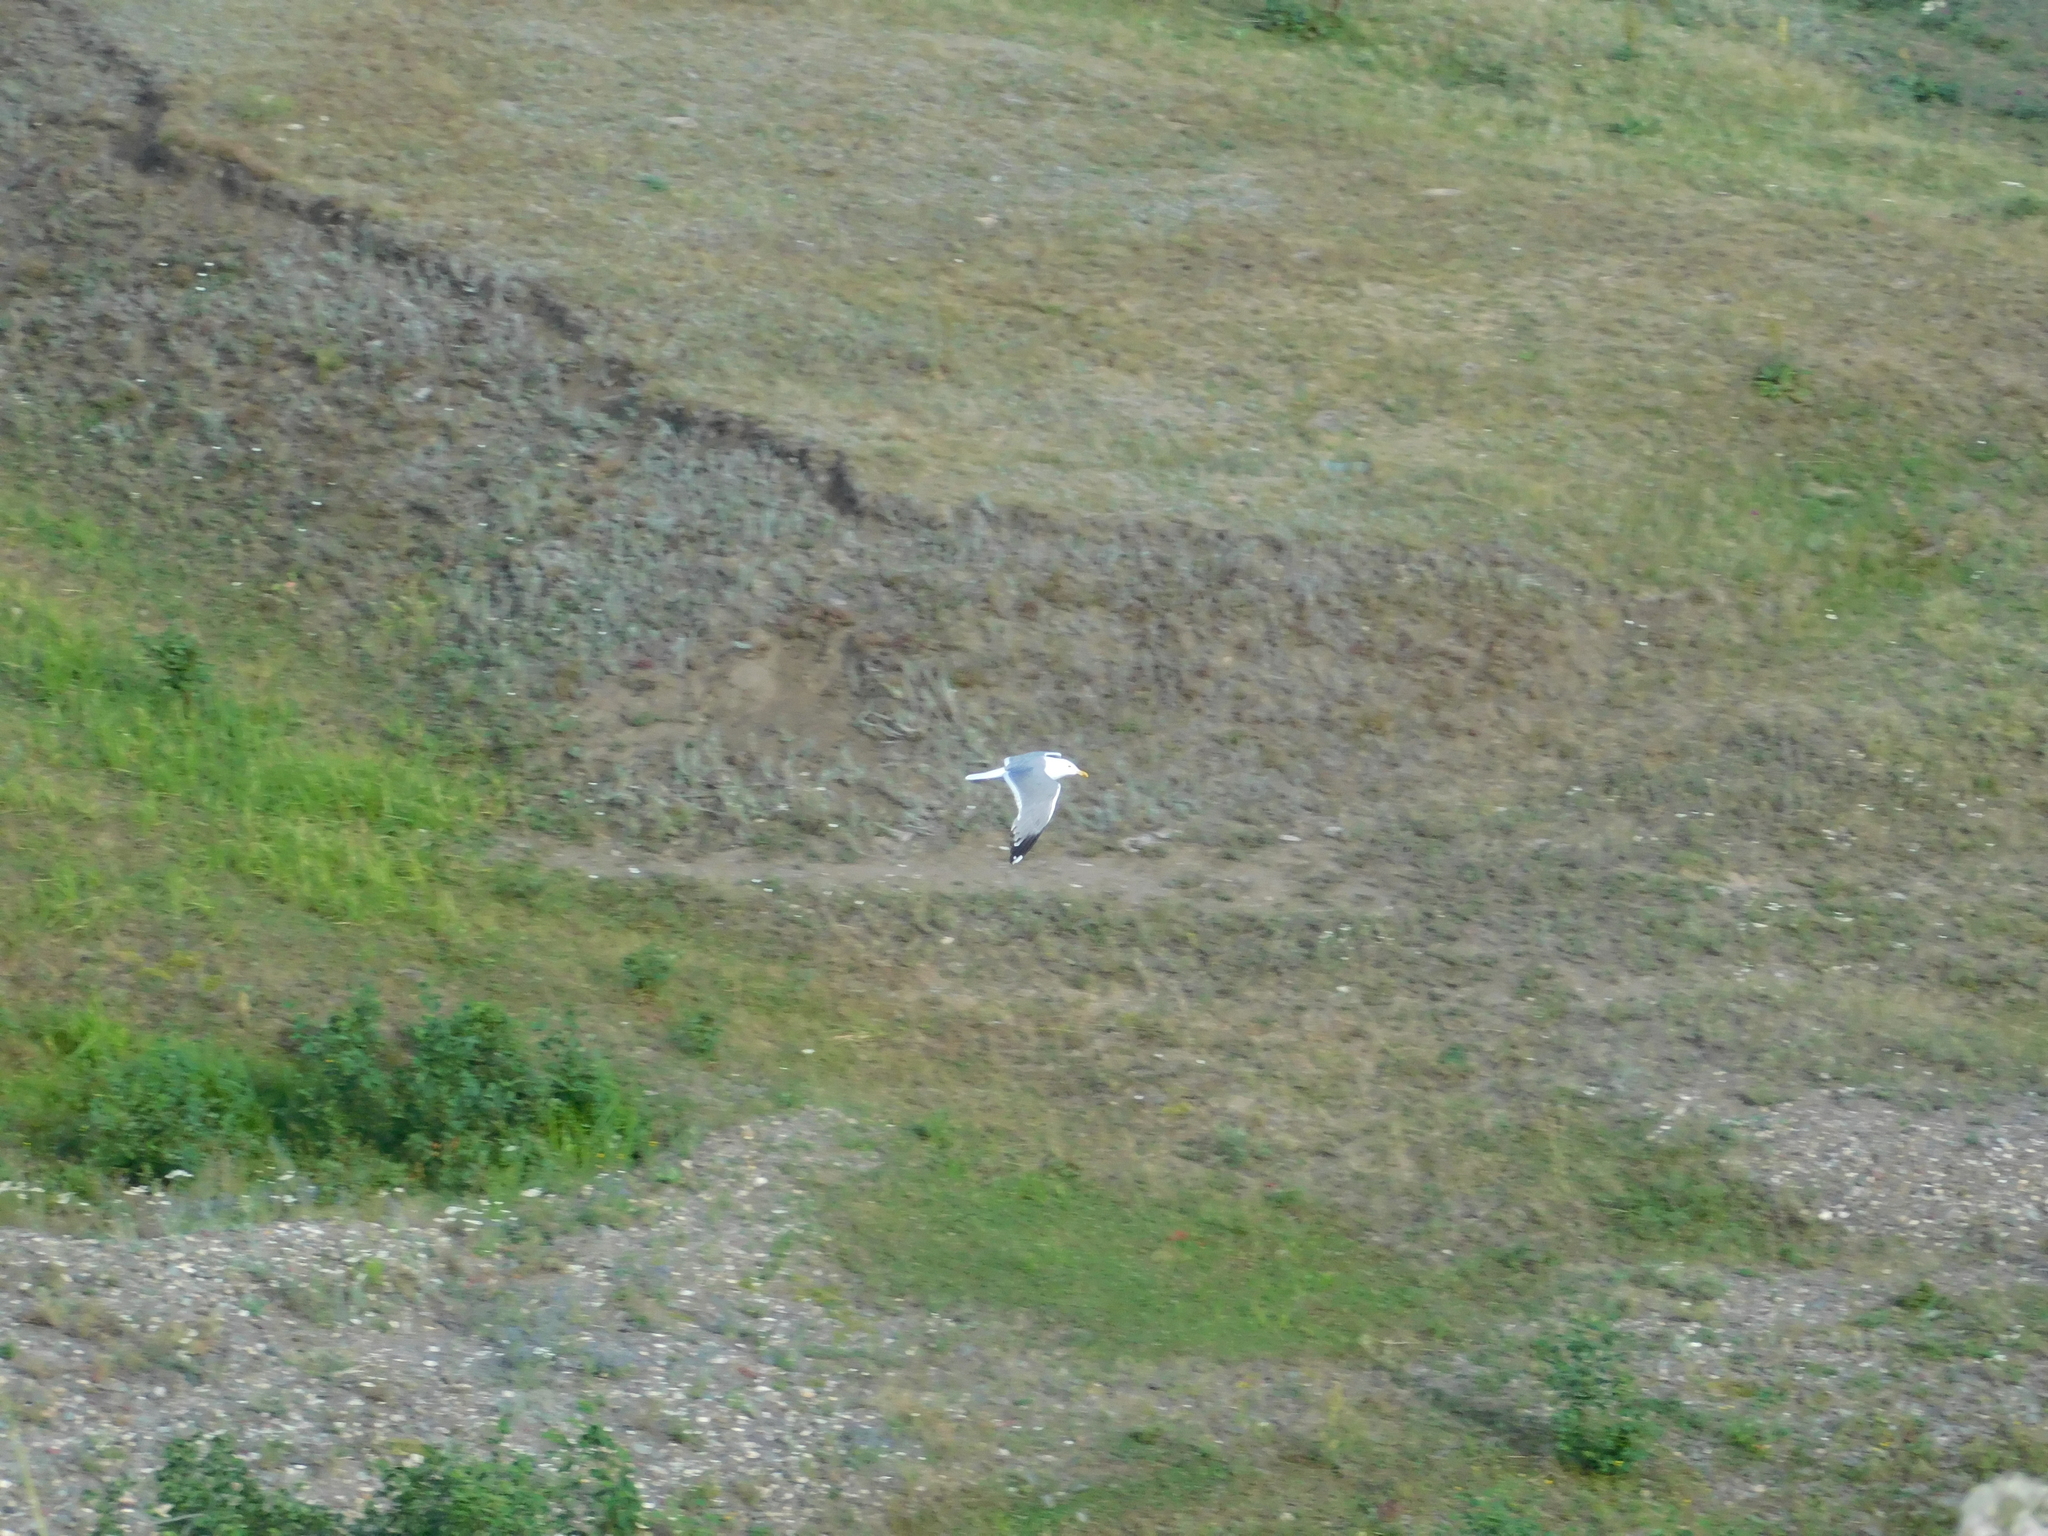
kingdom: Animalia
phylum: Chordata
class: Aves
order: Charadriiformes
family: Laridae
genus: Larus
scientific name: Larus fuscus
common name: Lesser black-backed gull
